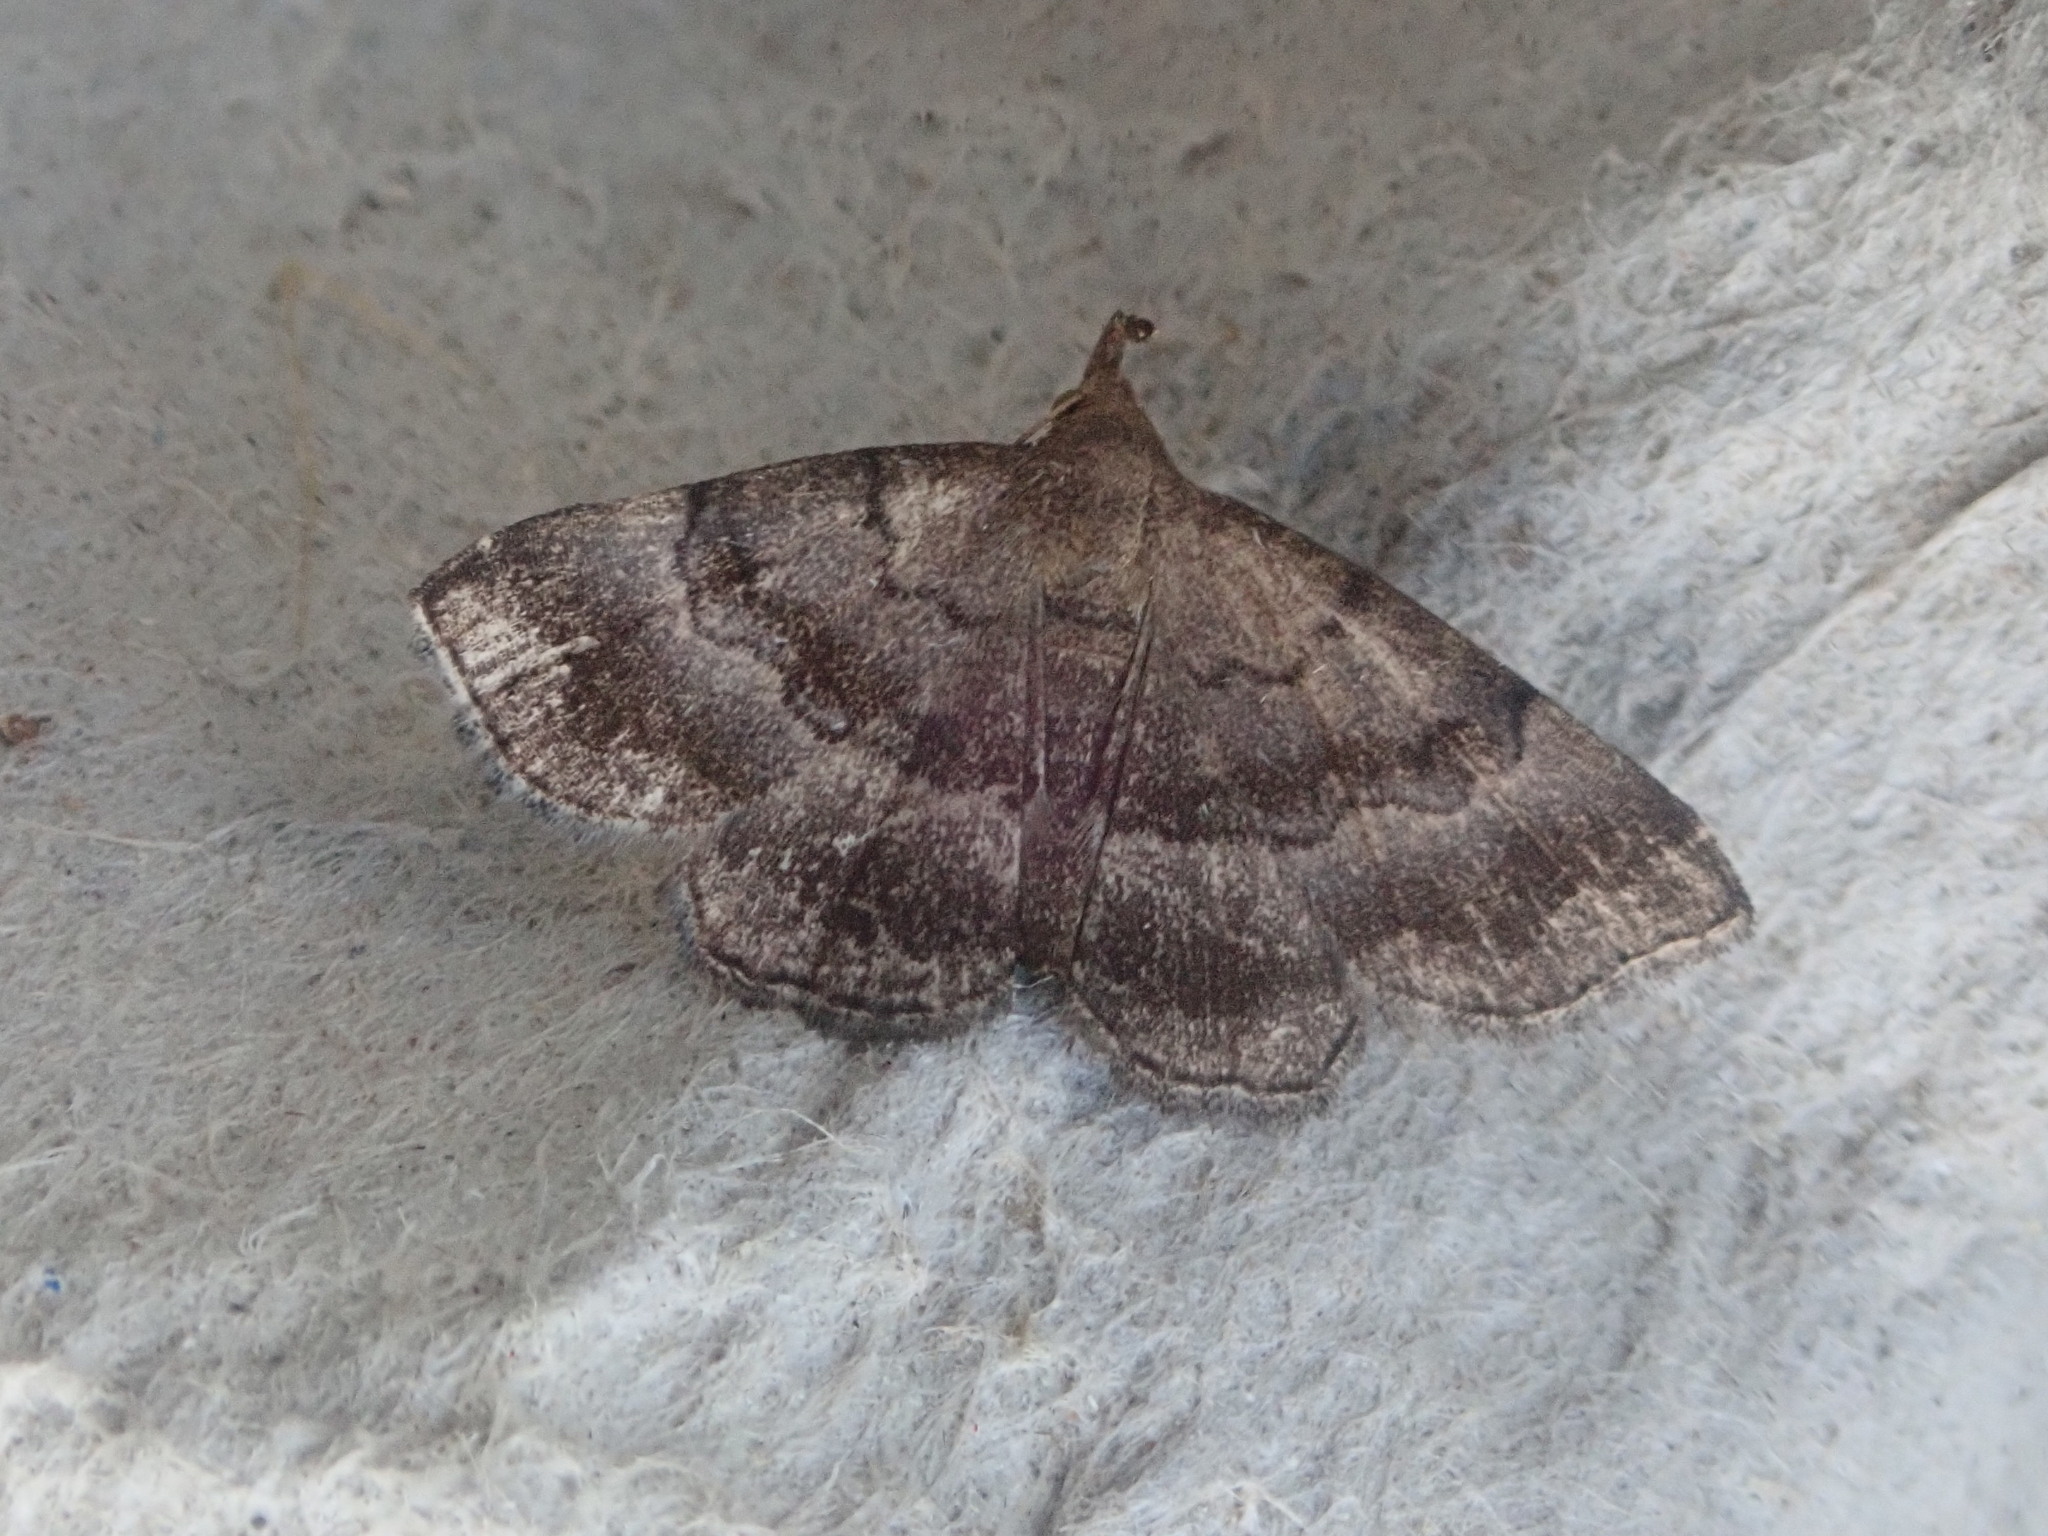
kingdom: Animalia
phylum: Arthropoda
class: Insecta
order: Lepidoptera
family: Erebidae
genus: Phalaenostola
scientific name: Phalaenostola larentioides
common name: Black-banded owlet
